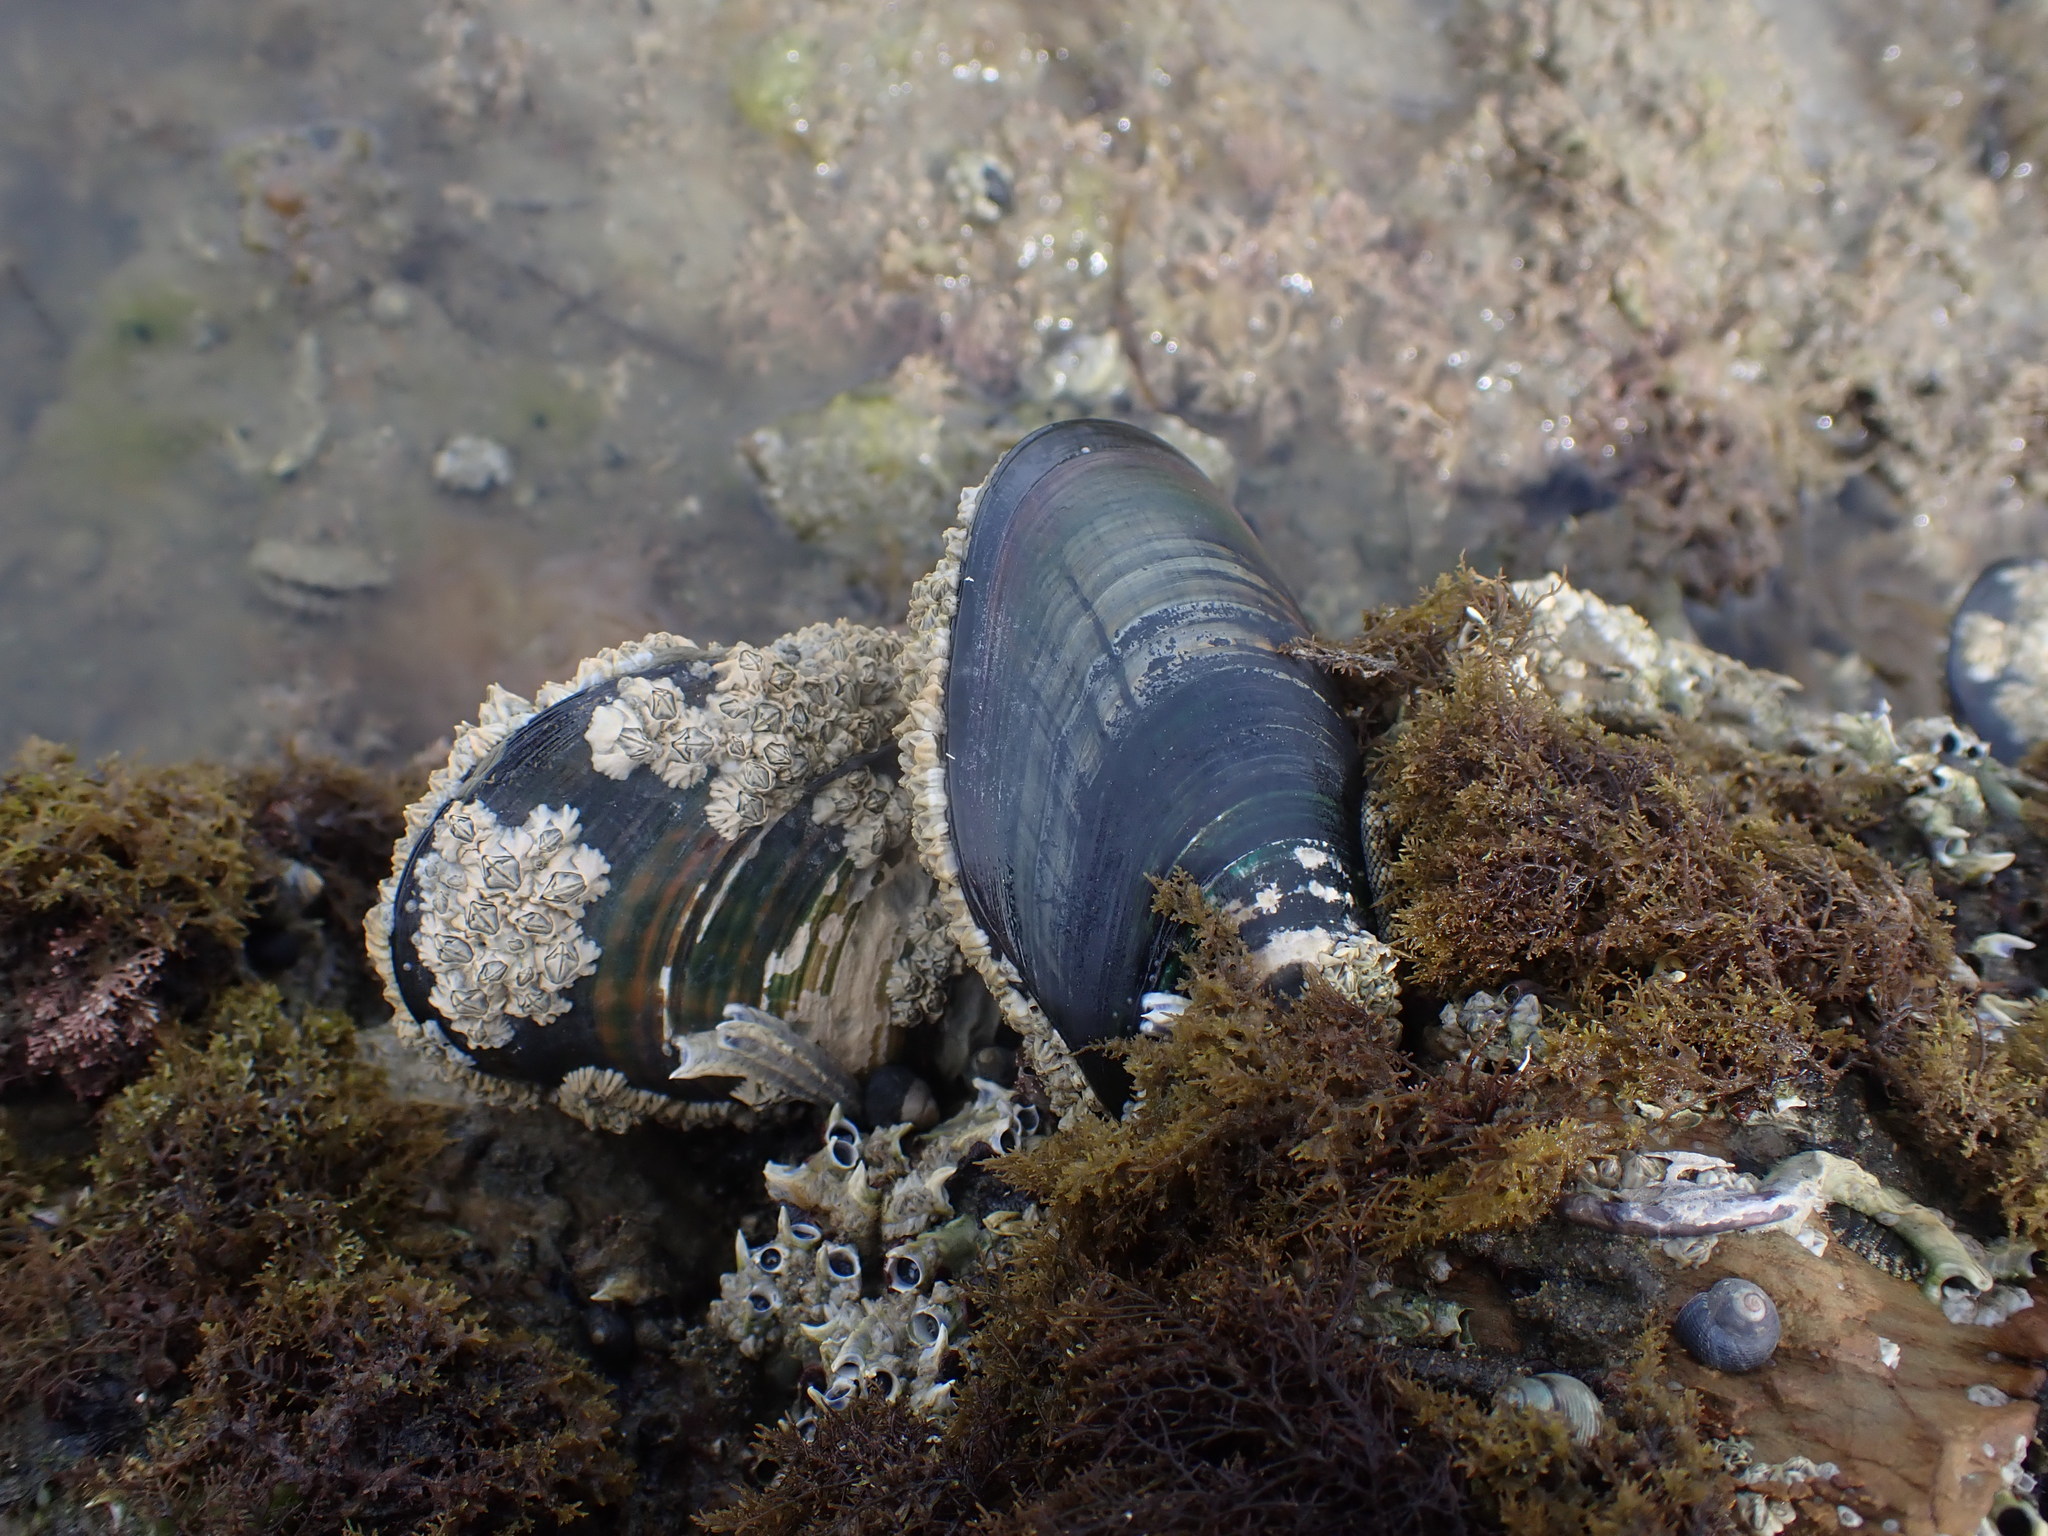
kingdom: Animalia
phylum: Mollusca
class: Bivalvia
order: Mytilida
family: Mytilidae
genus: Perna
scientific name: Perna canaliculus
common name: New zealand greenshelltm
